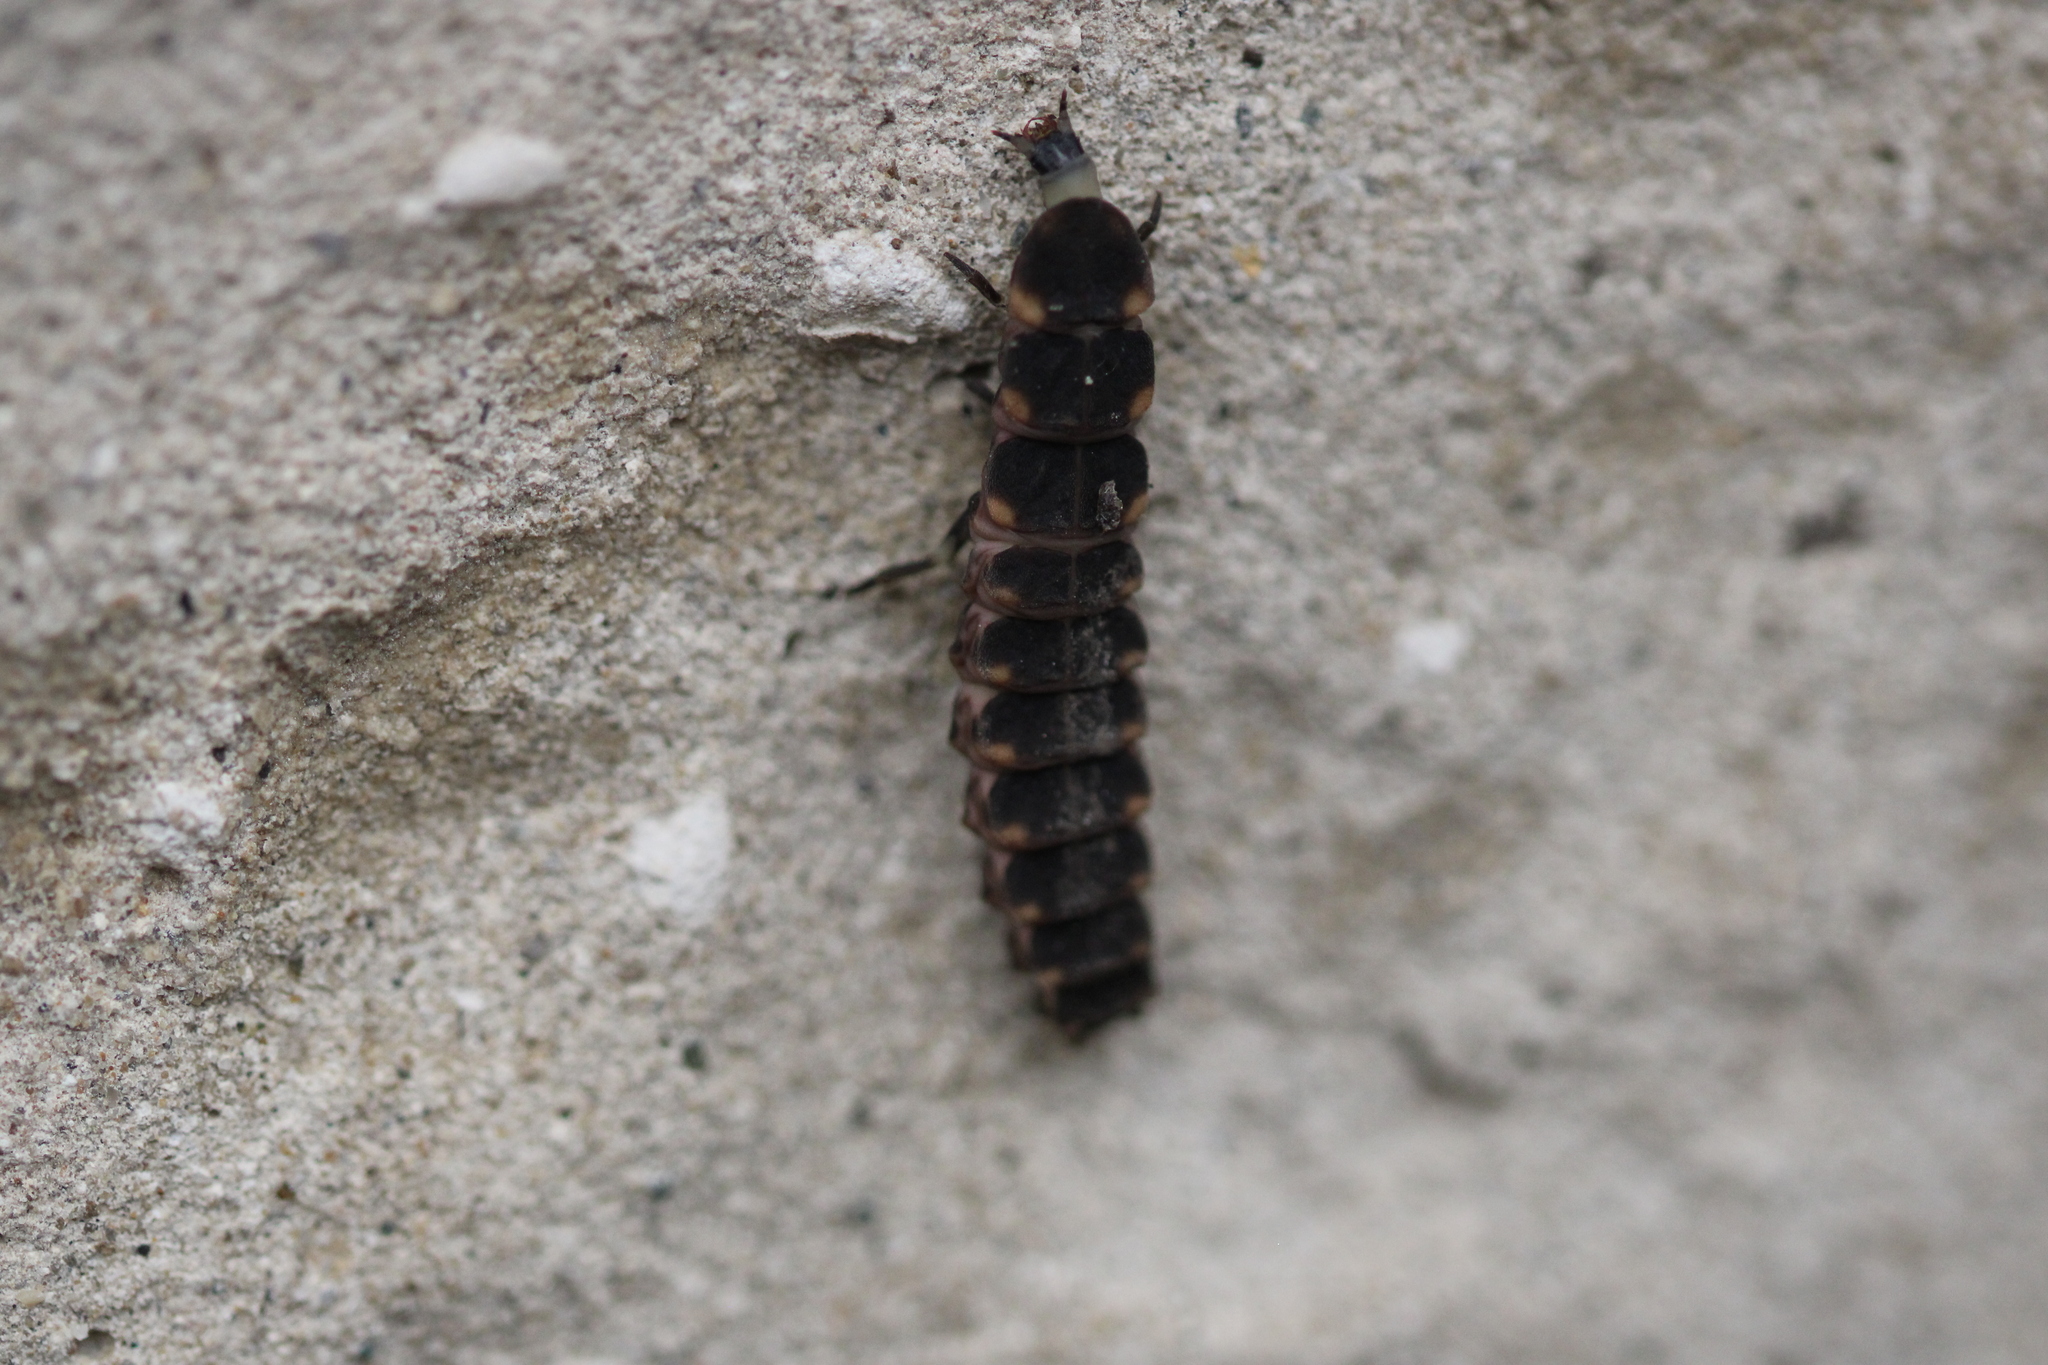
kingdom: Animalia
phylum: Arthropoda
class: Insecta
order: Coleoptera
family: Lampyridae
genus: Lampyris
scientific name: Lampyris noctiluca
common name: Glow-worm
